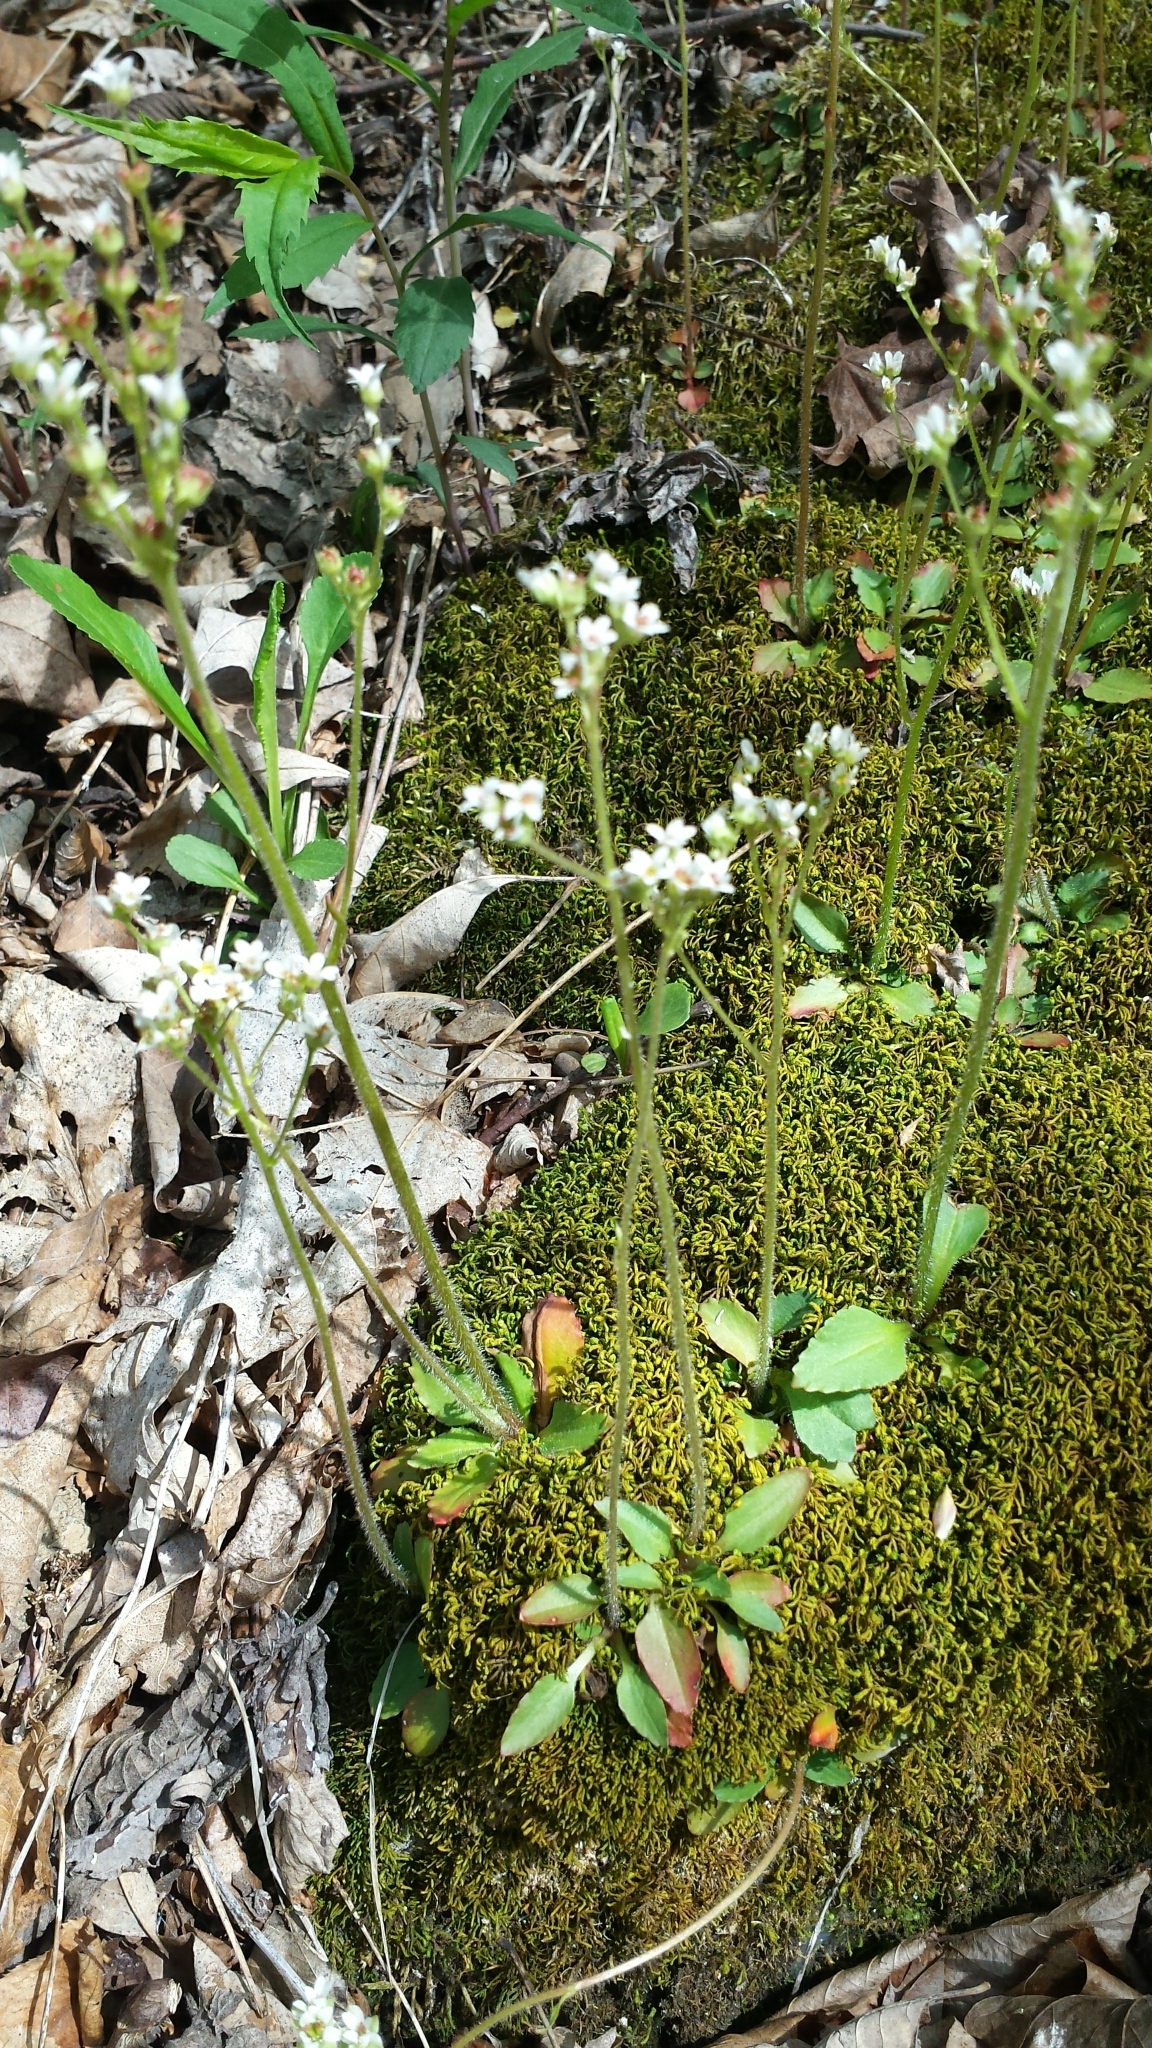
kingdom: Plantae
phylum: Tracheophyta
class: Magnoliopsida
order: Saxifragales
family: Saxifragaceae
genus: Micranthes
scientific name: Micranthes virginiensis
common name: Early saxifrage
